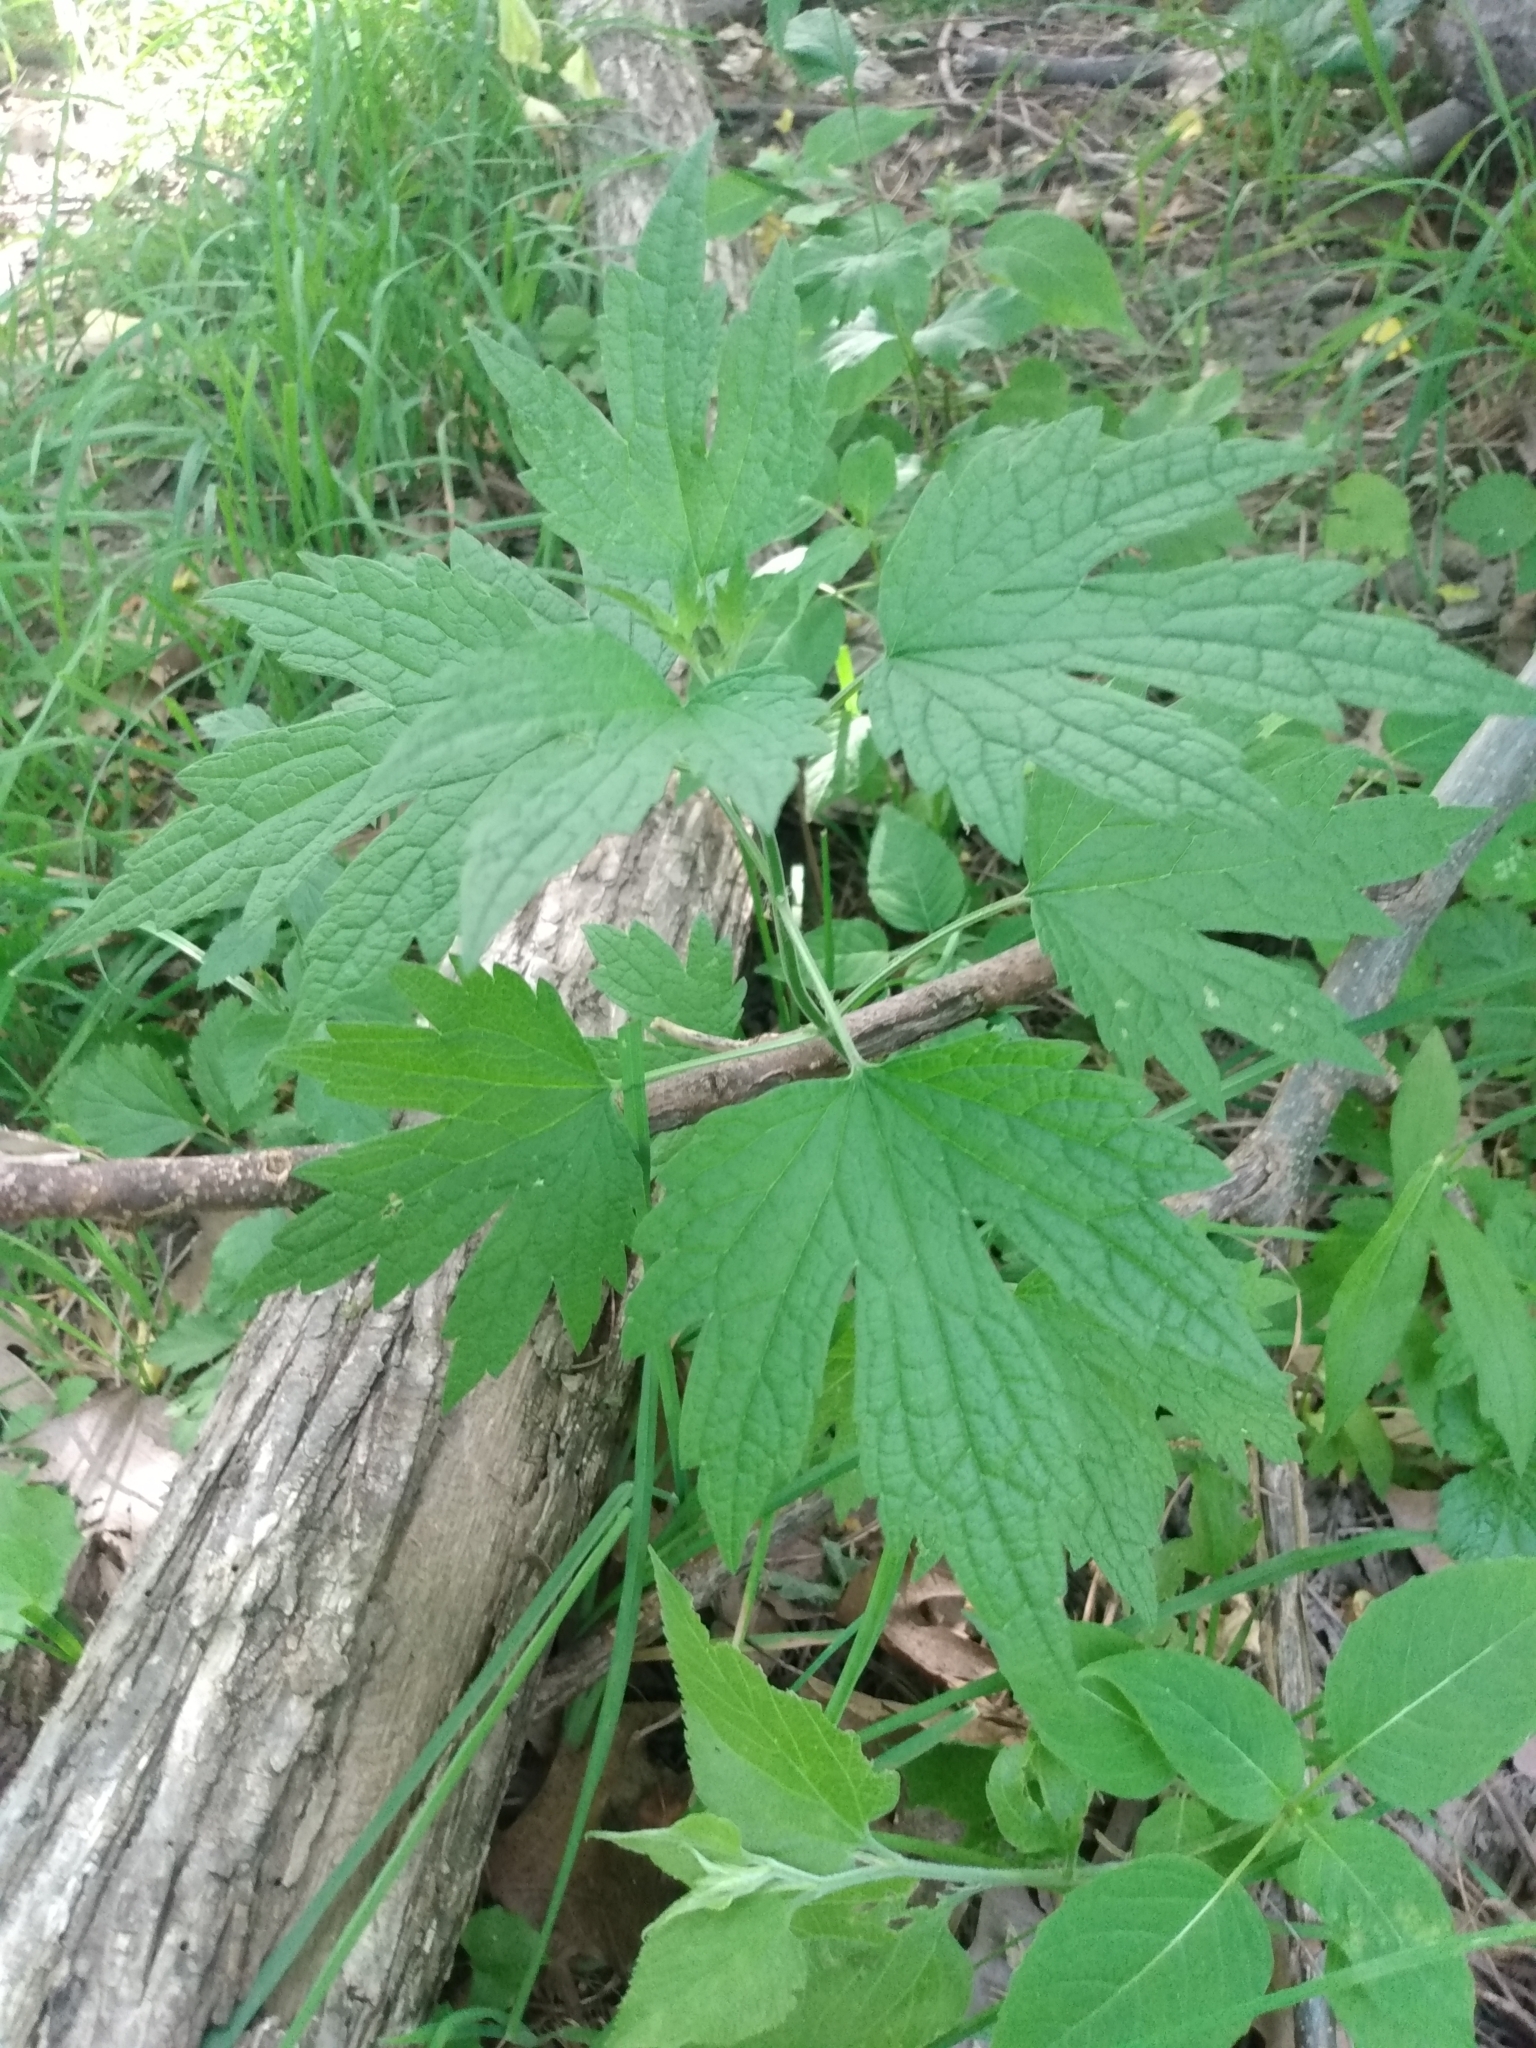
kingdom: Plantae
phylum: Tracheophyta
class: Magnoliopsida
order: Lamiales
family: Lamiaceae
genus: Leonurus
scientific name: Leonurus cardiaca
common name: Motherwort
